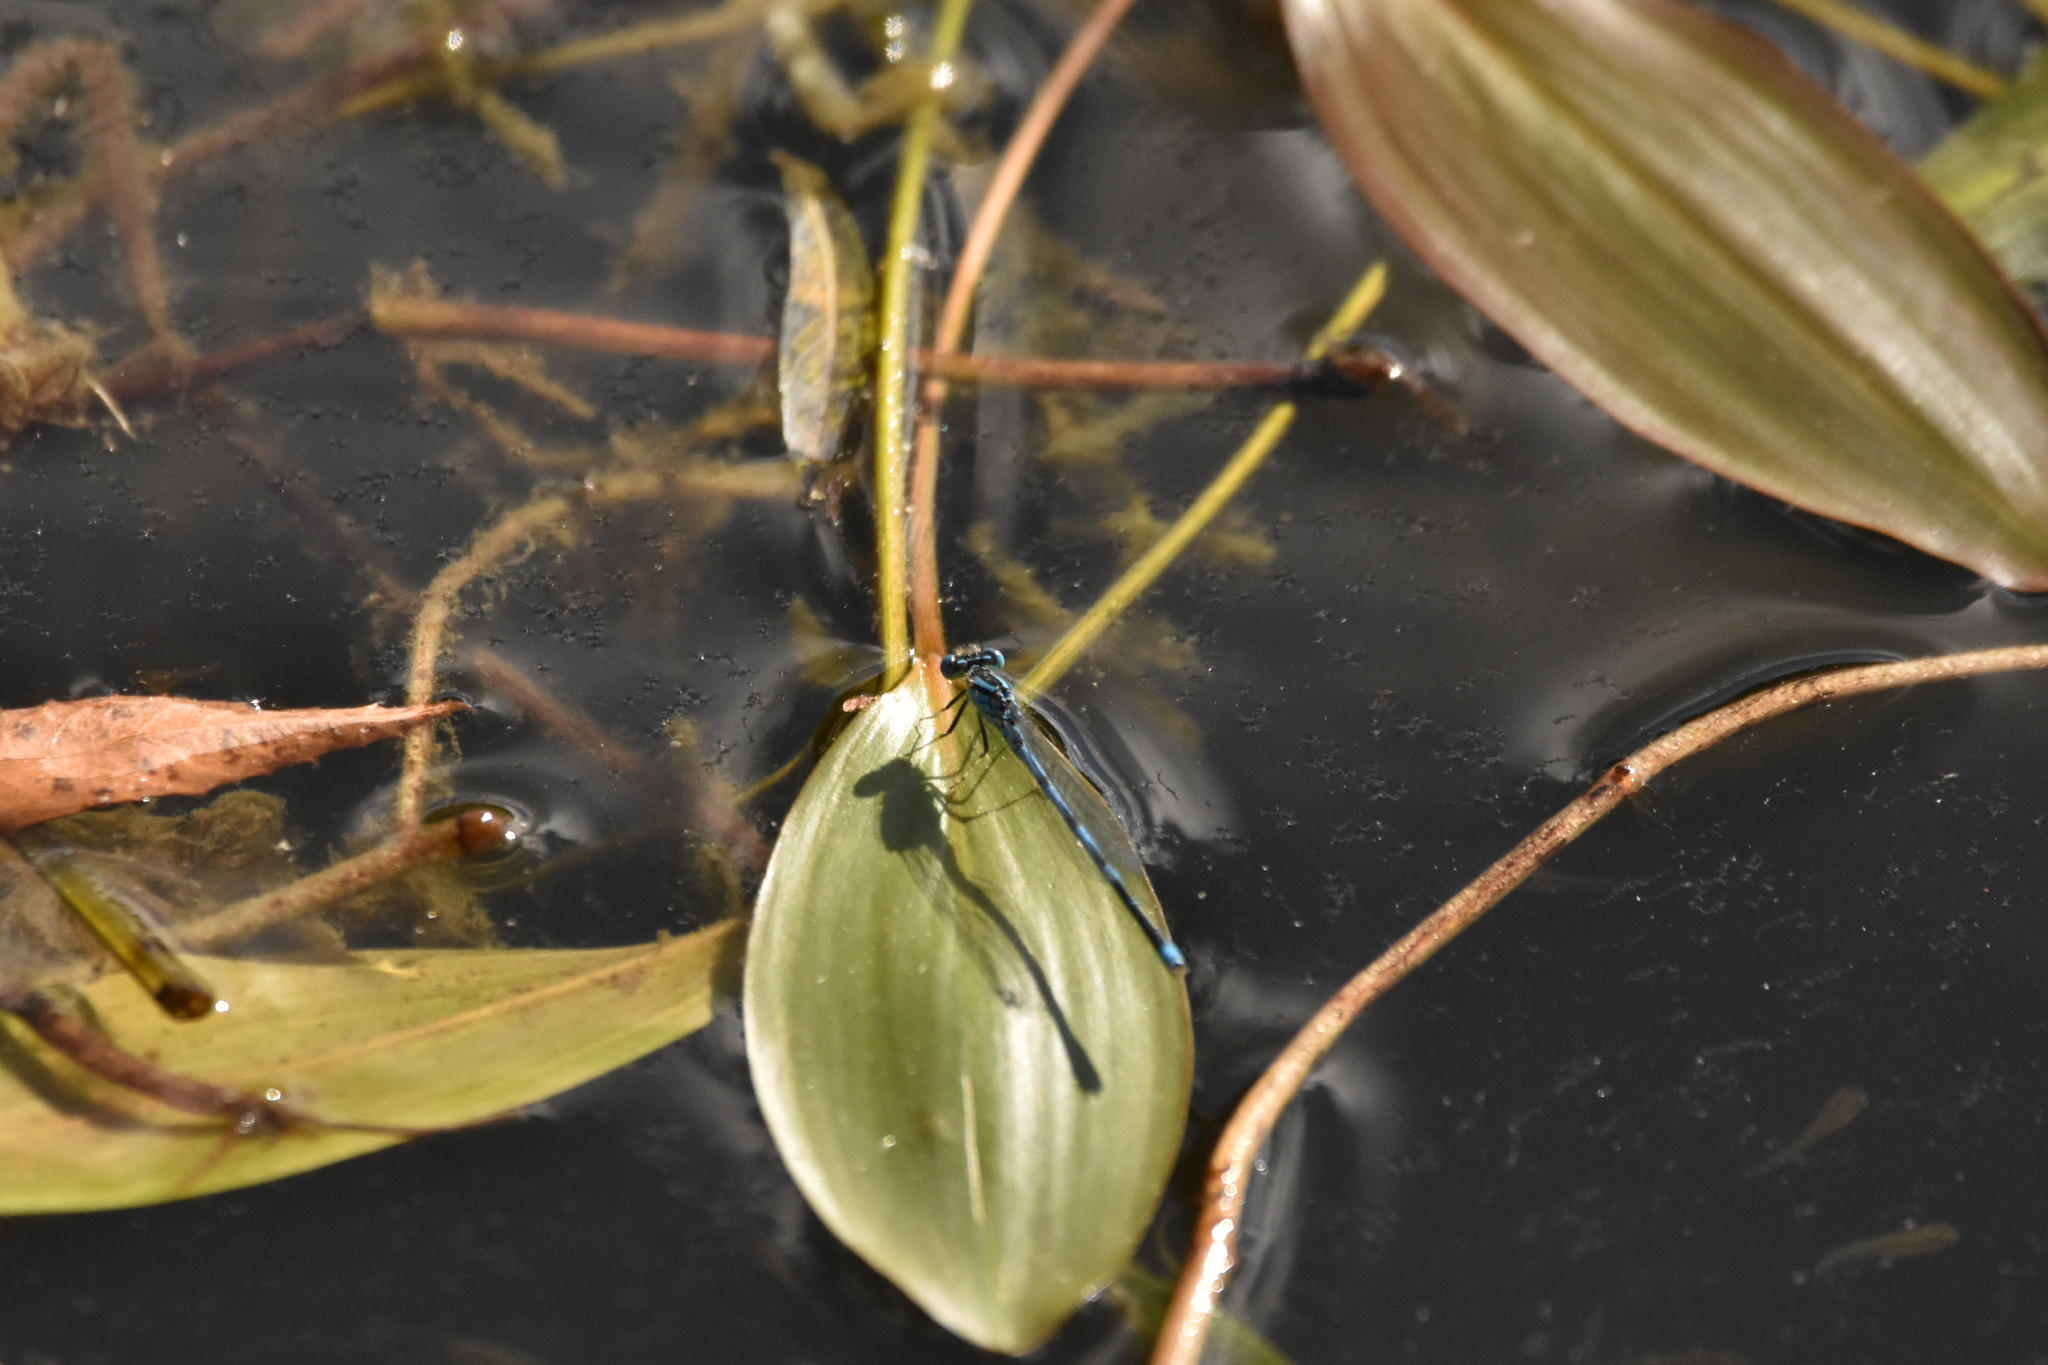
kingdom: Animalia
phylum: Arthropoda
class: Insecta
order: Odonata
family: Coenagrionidae
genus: Erythromma
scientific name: Erythromma lindenii
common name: Blue-eye
